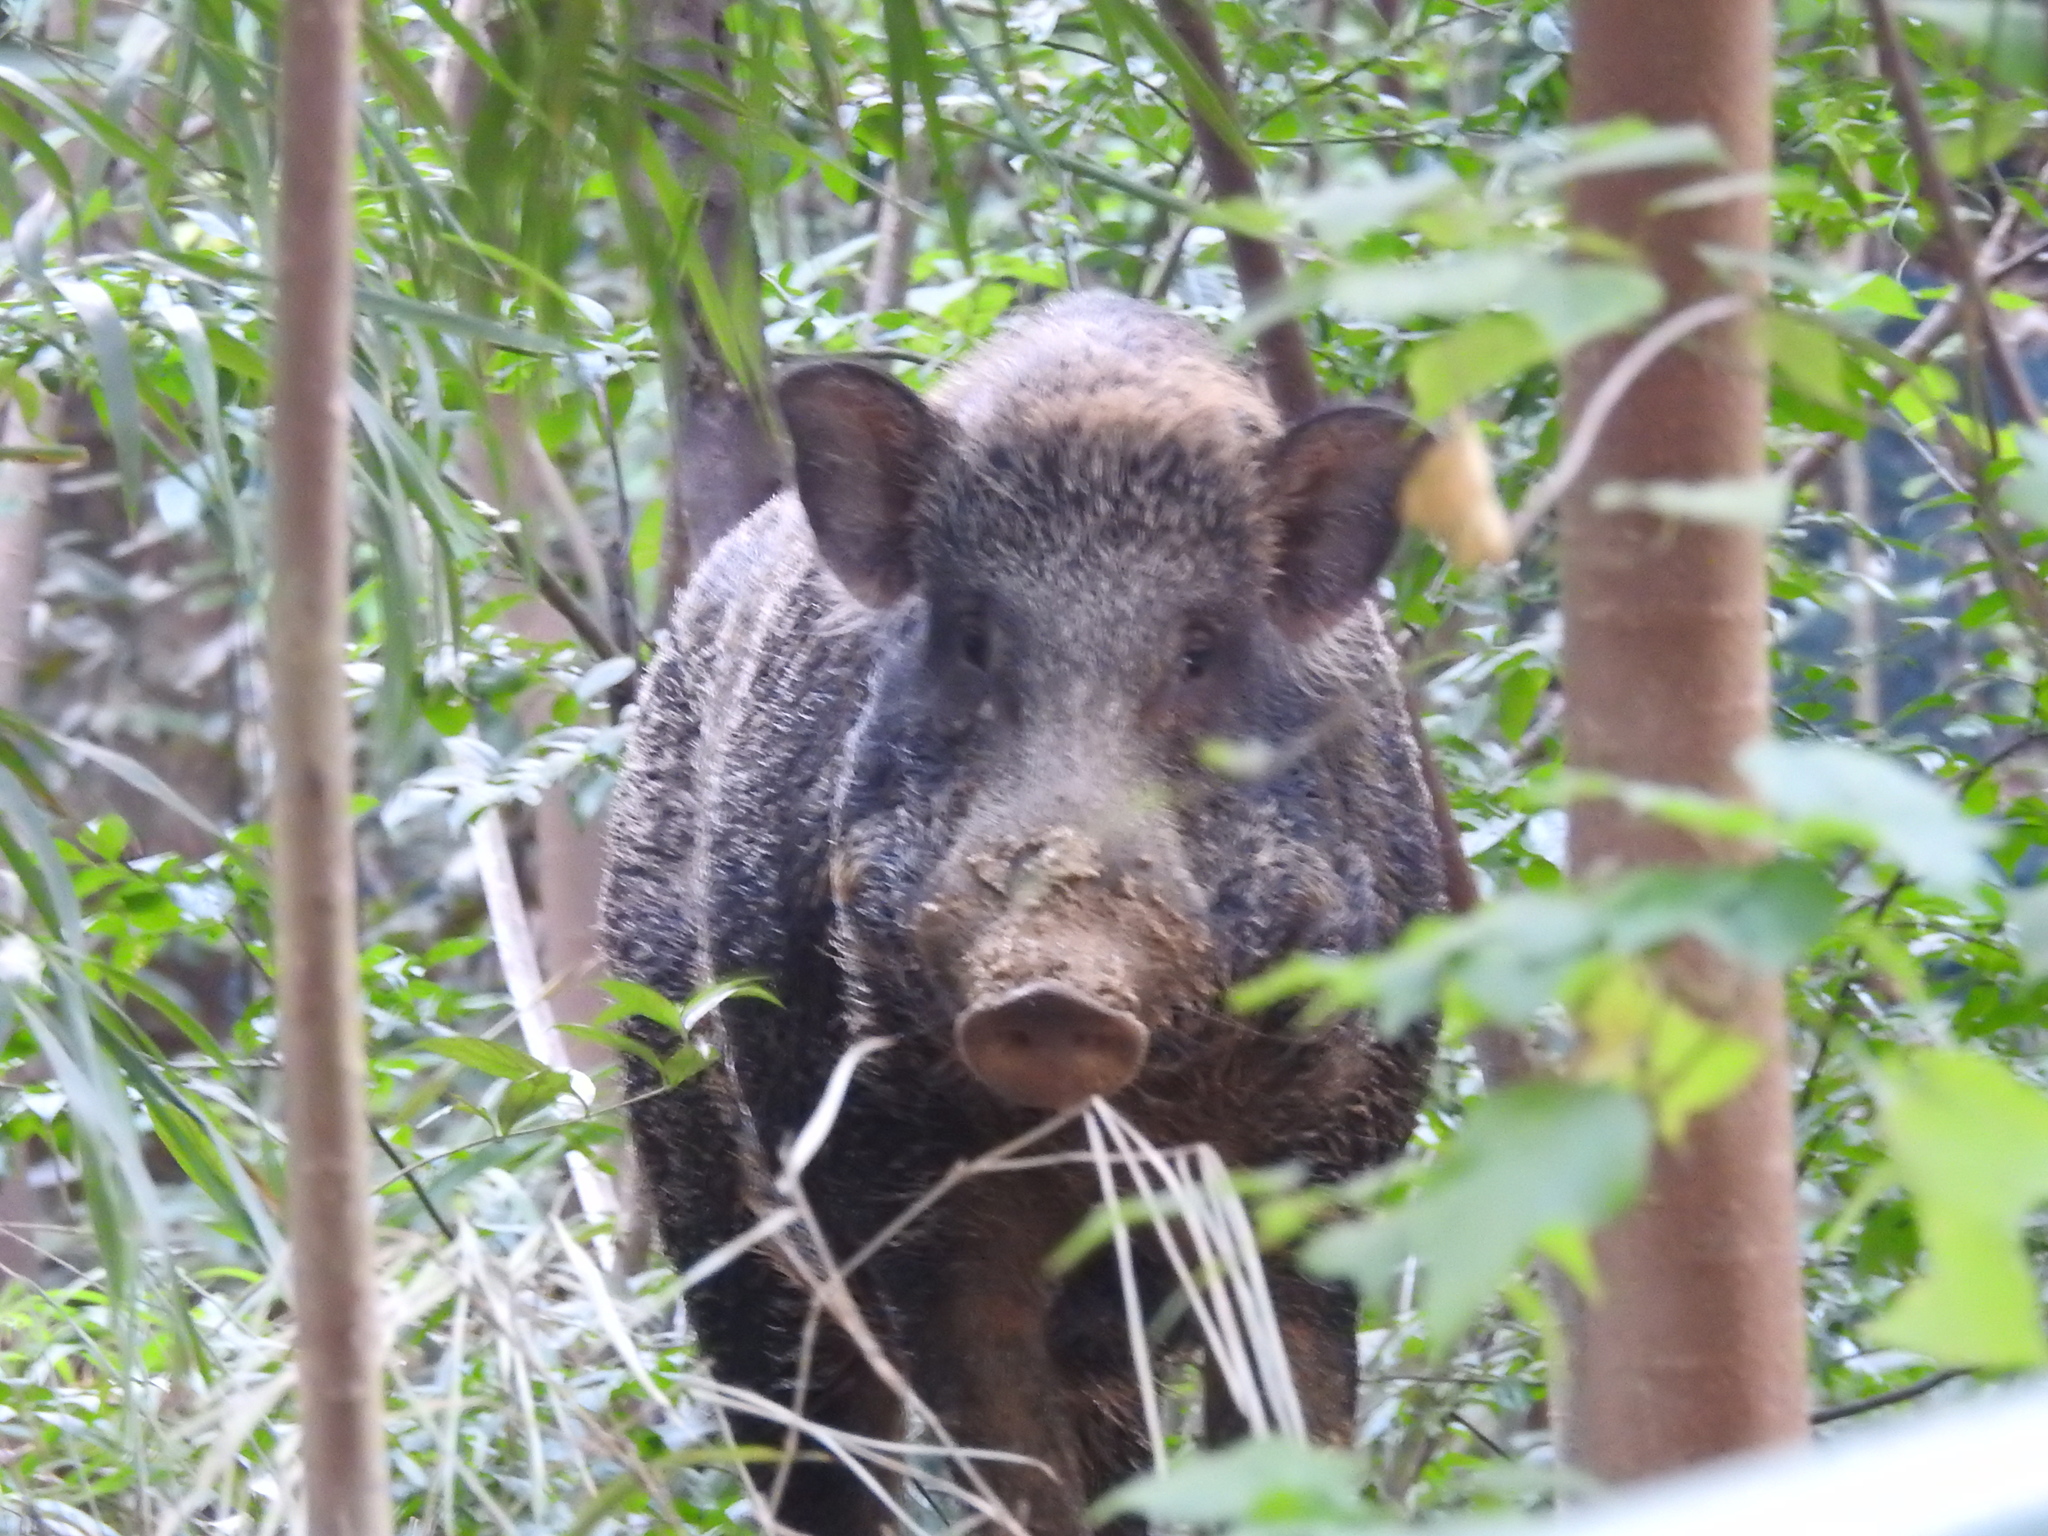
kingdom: Animalia
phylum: Chordata
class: Mammalia
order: Artiodactyla
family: Suidae
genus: Sus
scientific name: Sus scrofa
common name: Wild boar
